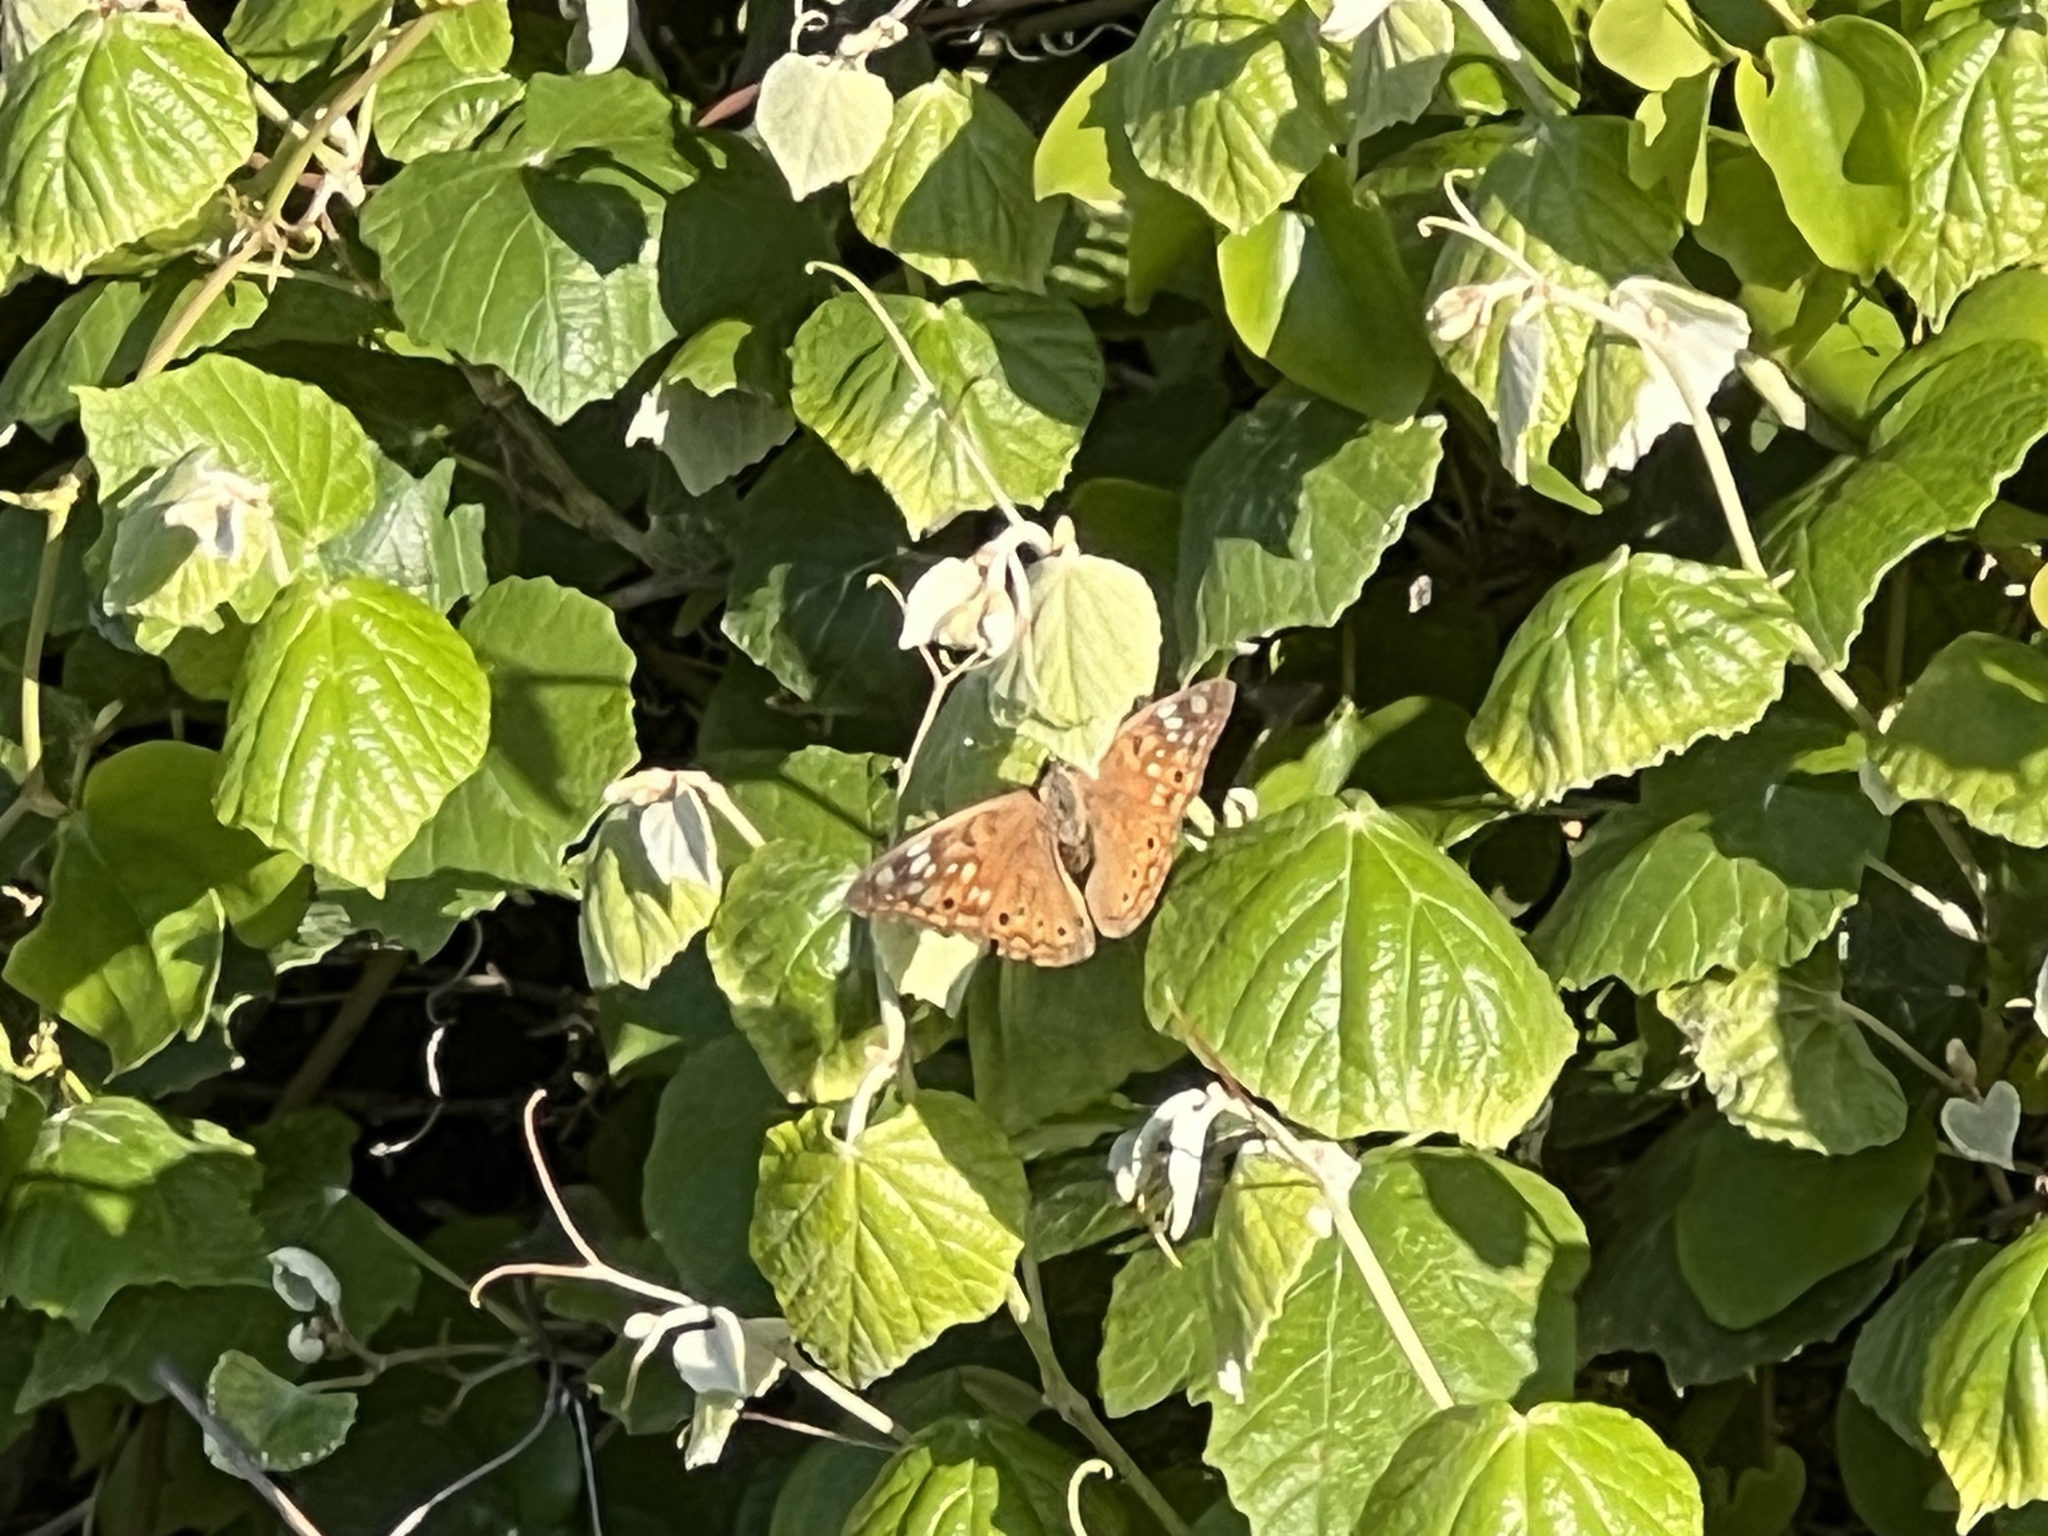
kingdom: Animalia
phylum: Arthropoda
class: Insecta
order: Lepidoptera
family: Nymphalidae
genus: Asterocampa
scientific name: Asterocampa celtis
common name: Hackberry emperor
